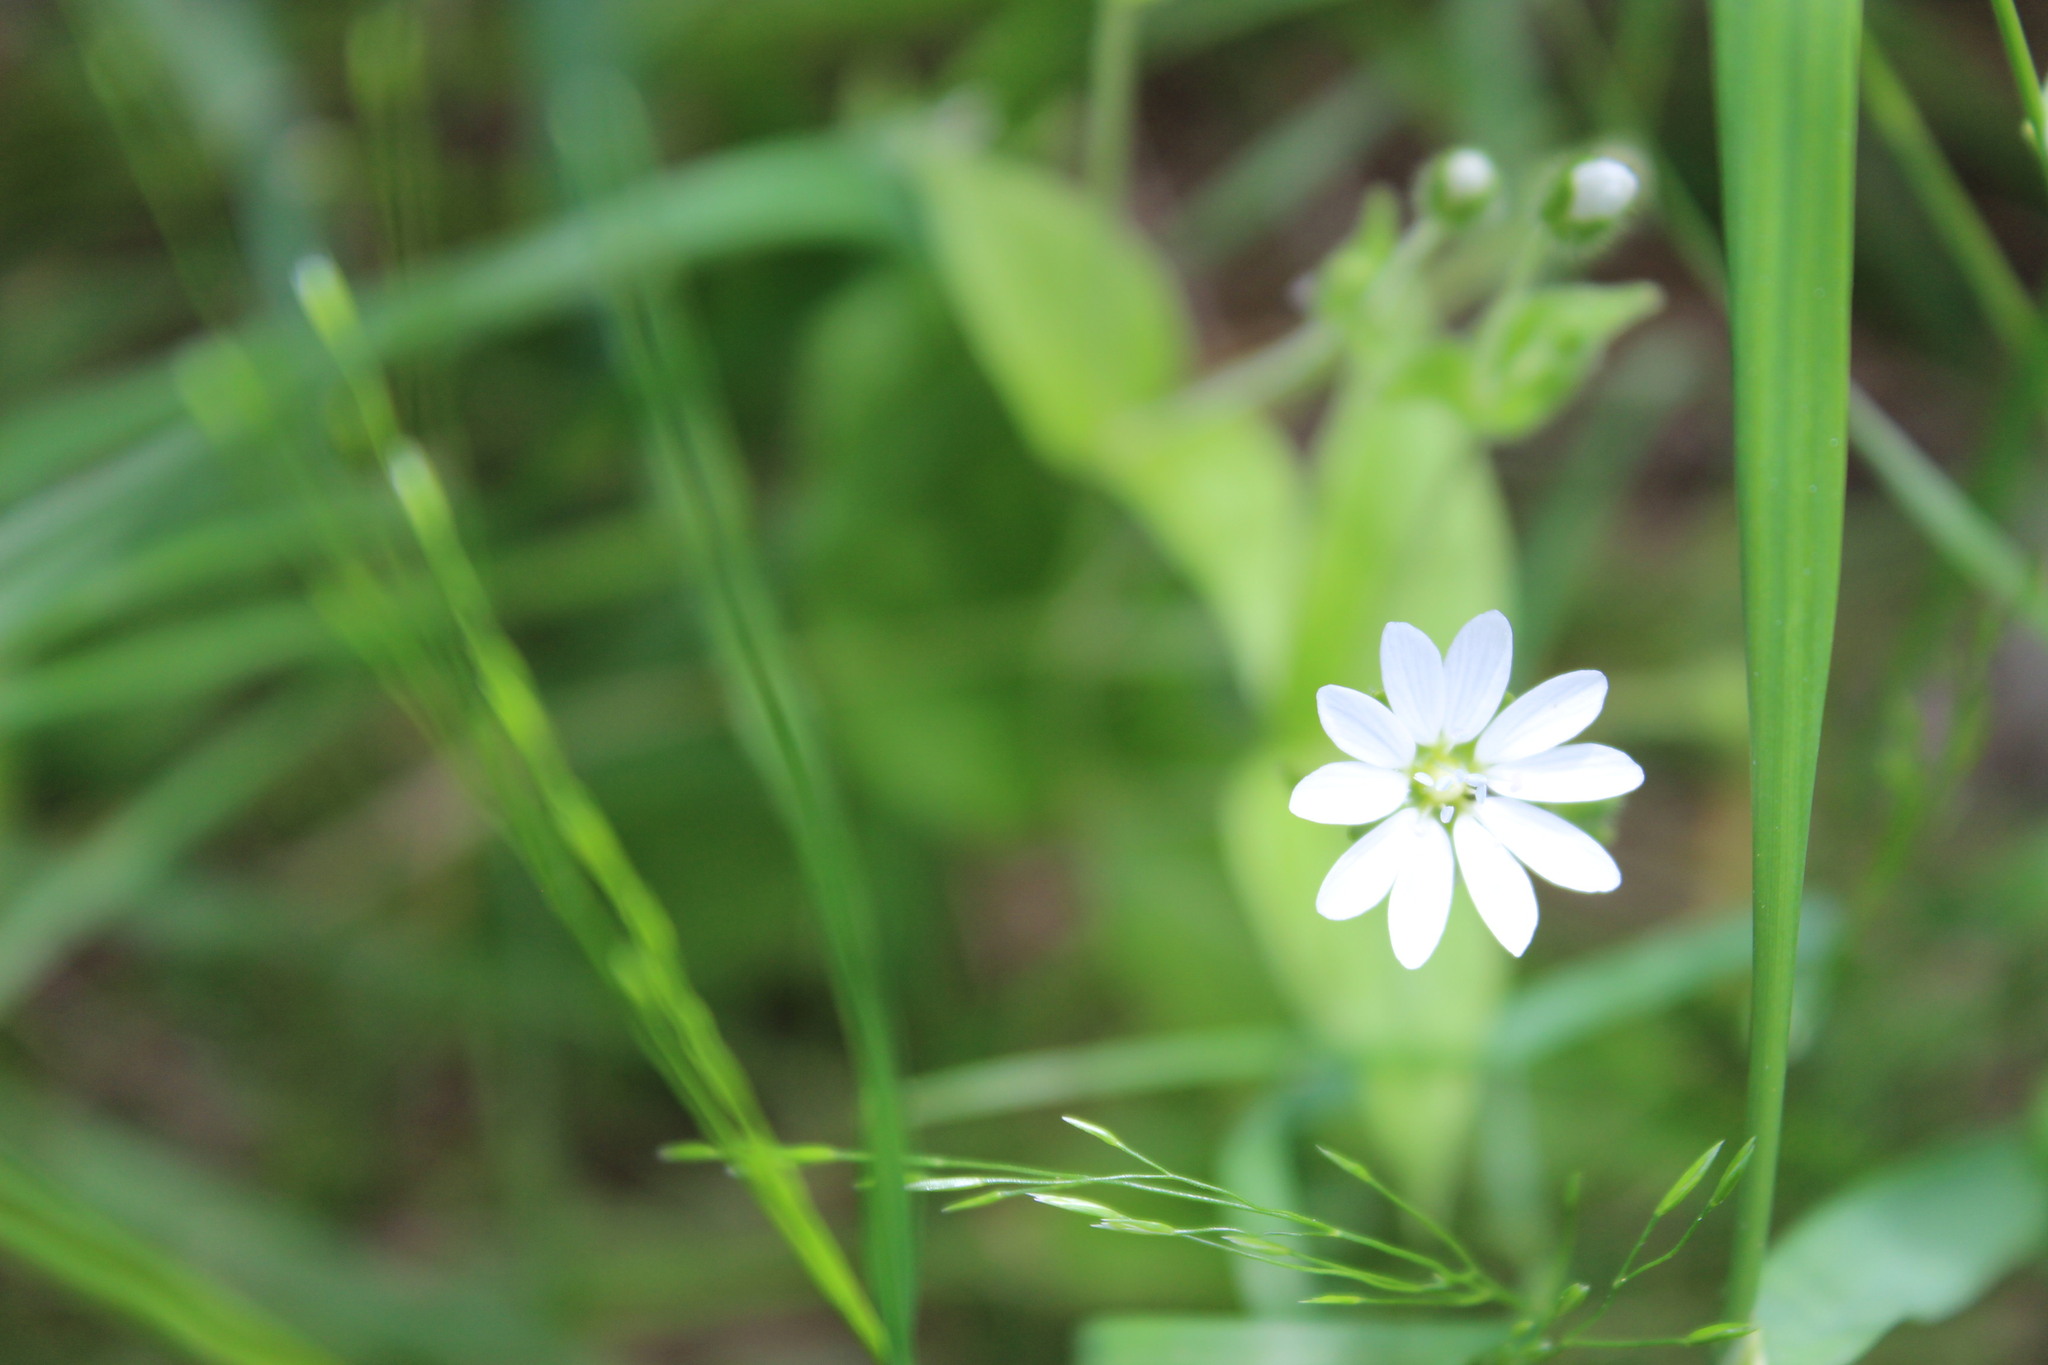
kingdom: Plantae
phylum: Tracheophyta
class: Magnoliopsida
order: Caryophyllales
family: Caryophyllaceae
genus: Stellaria
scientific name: Stellaria bungeana
